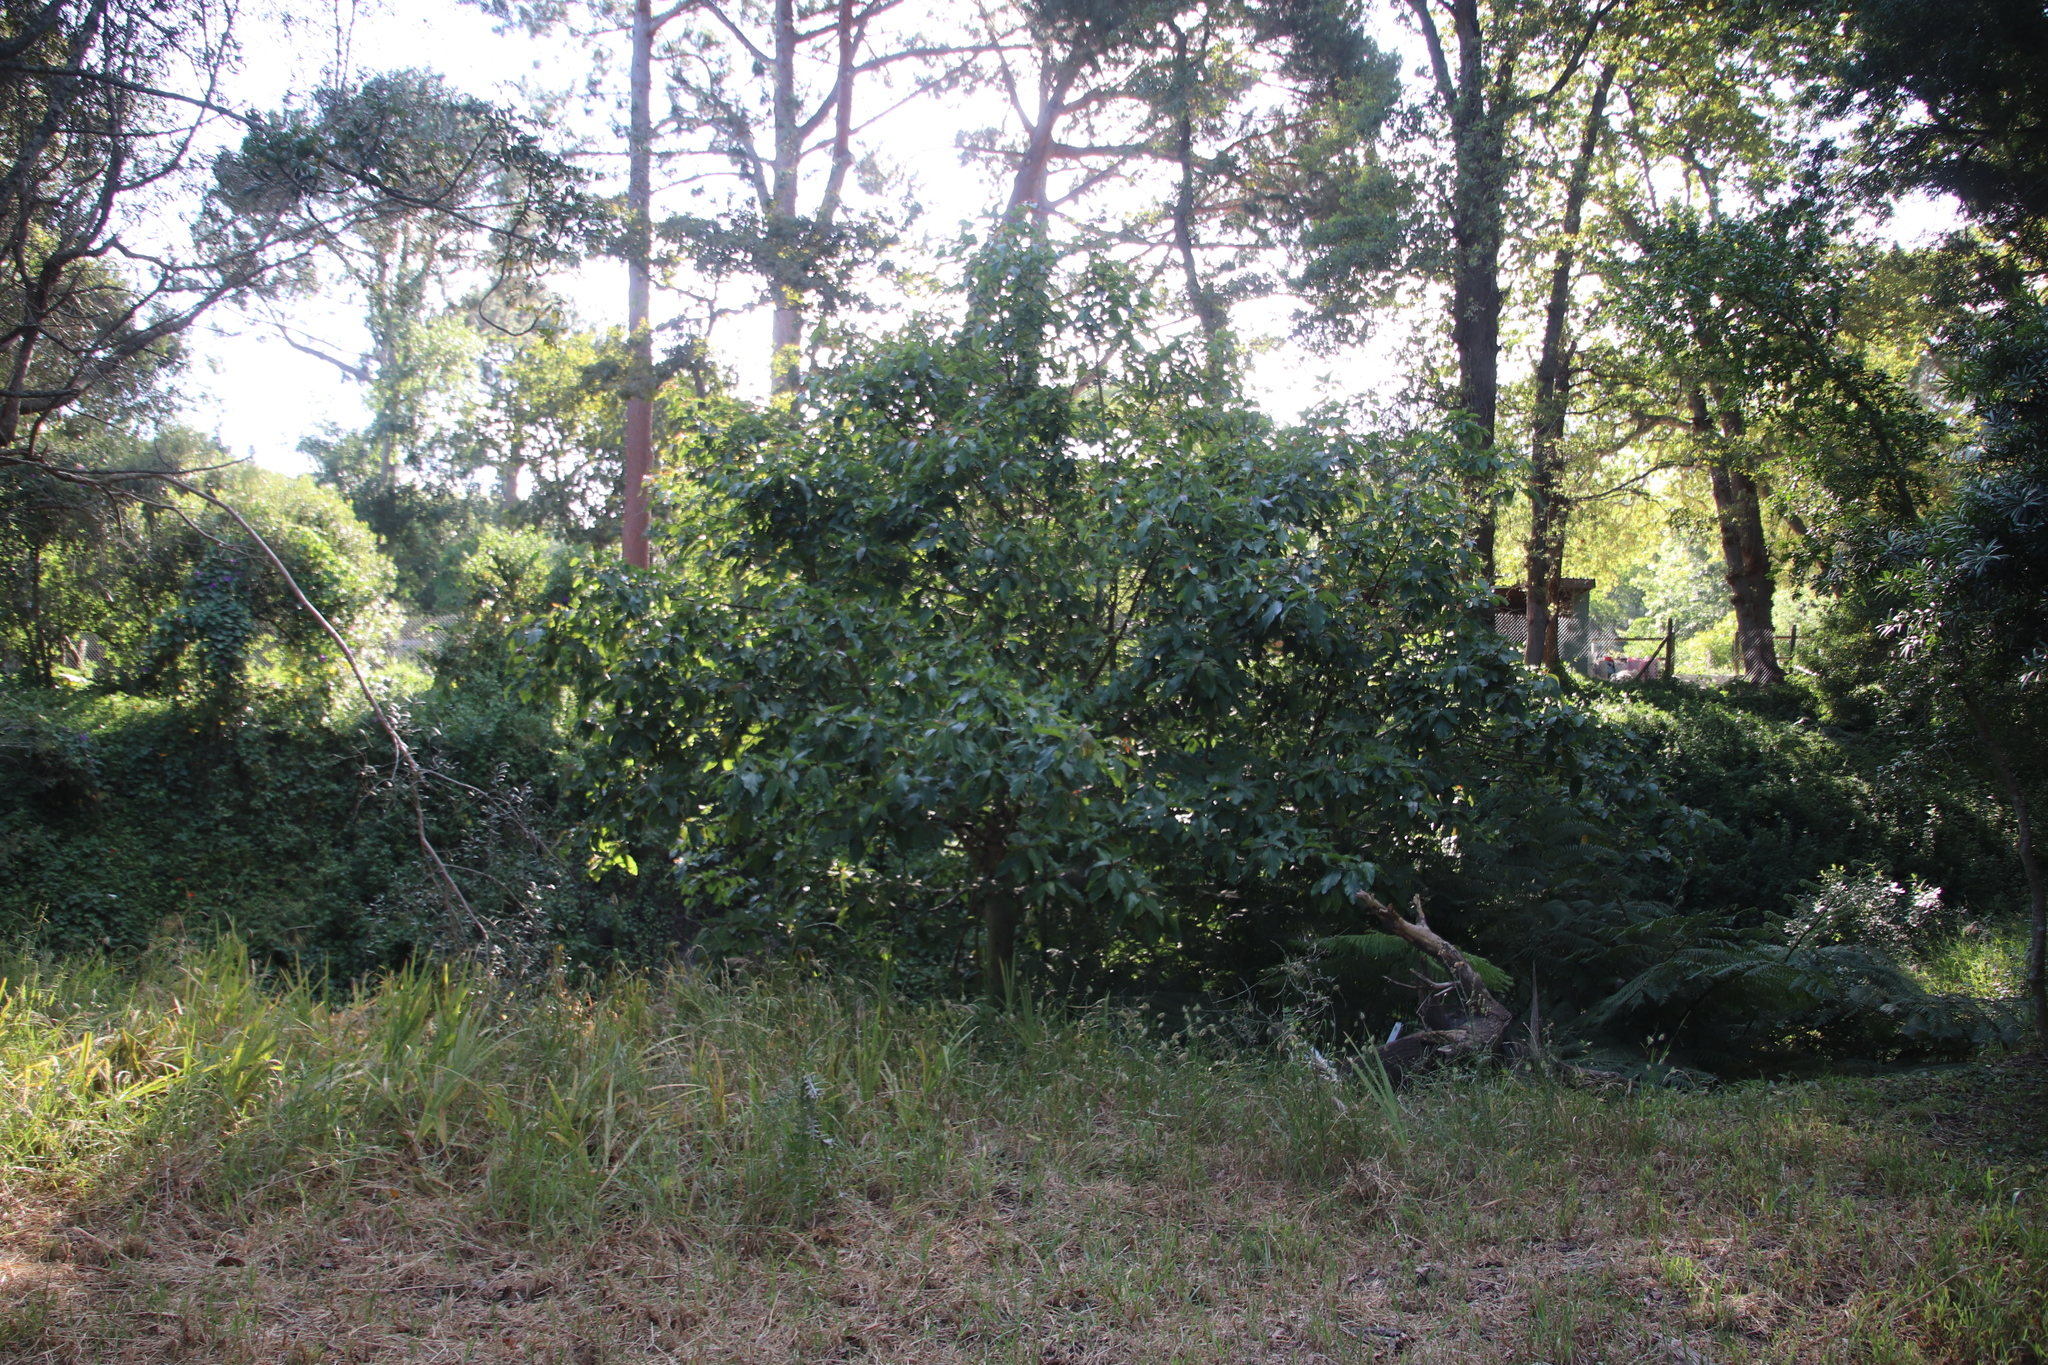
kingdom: Plantae
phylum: Tracheophyta
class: Magnoliopsida
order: Rosales
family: Moraceae
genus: Ficus
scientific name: Ficus sur
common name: Cape fig
